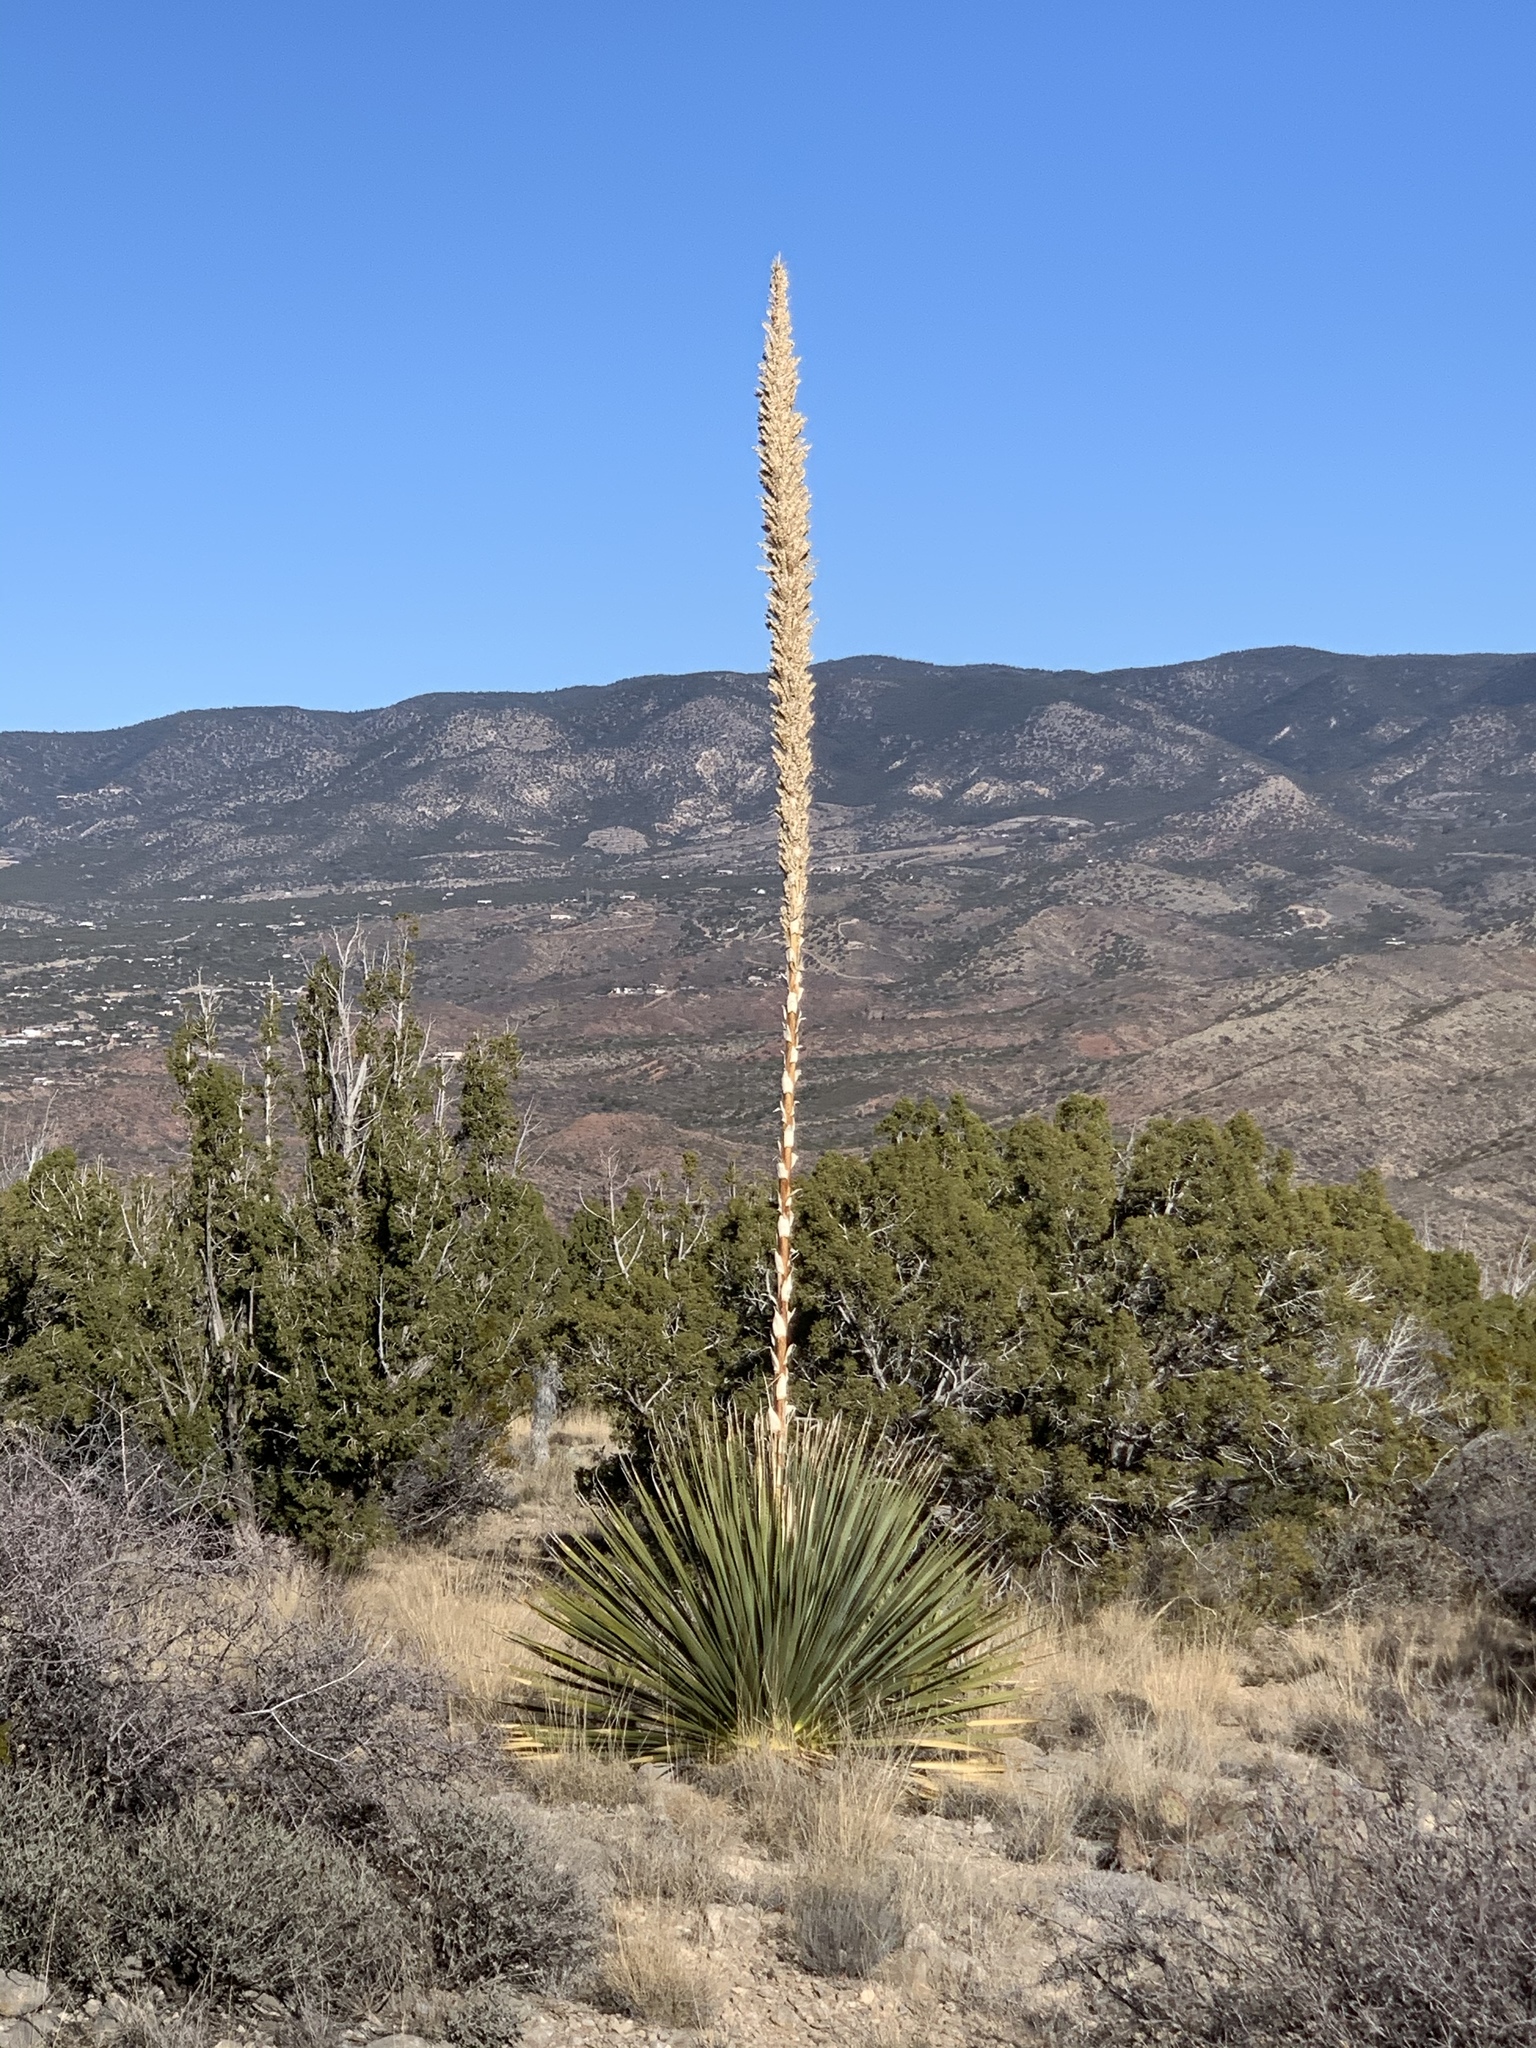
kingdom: Plantae
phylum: Tracheophyta
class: Liliopsida
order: Asparagales
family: Asparagaceae
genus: Dasylirion
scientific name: Dasylirion wheeleri
